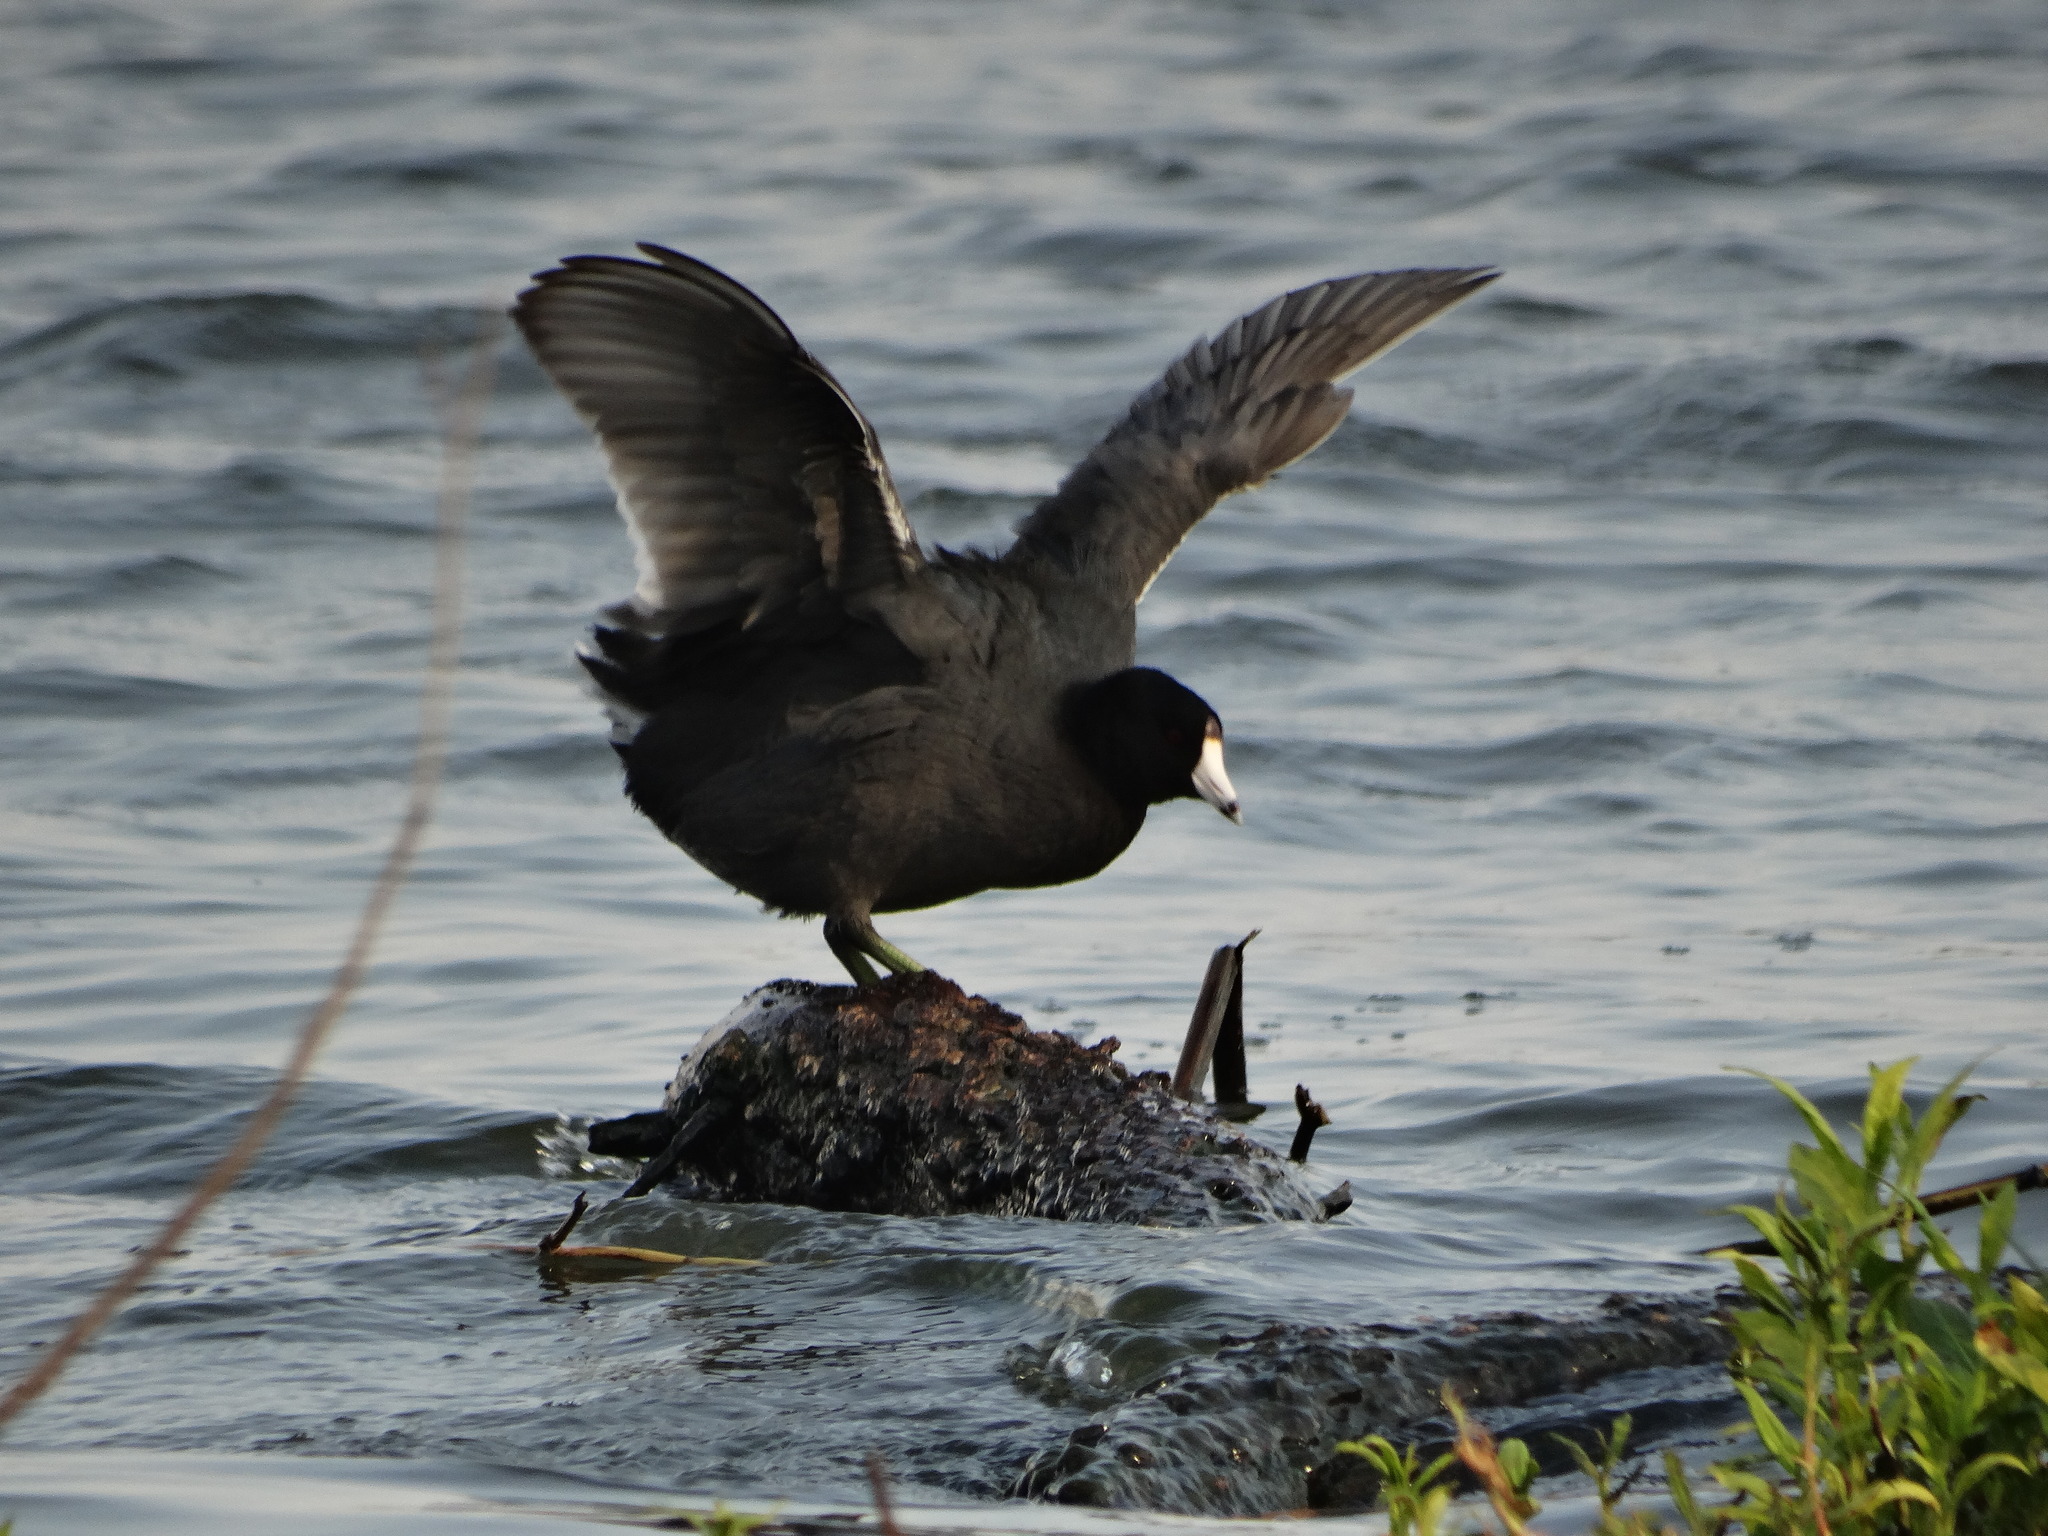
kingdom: Animalia
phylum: Chordata
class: Aves
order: Gruiformes
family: Rallidae
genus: Fulica
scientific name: Fulica americana
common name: American coot
